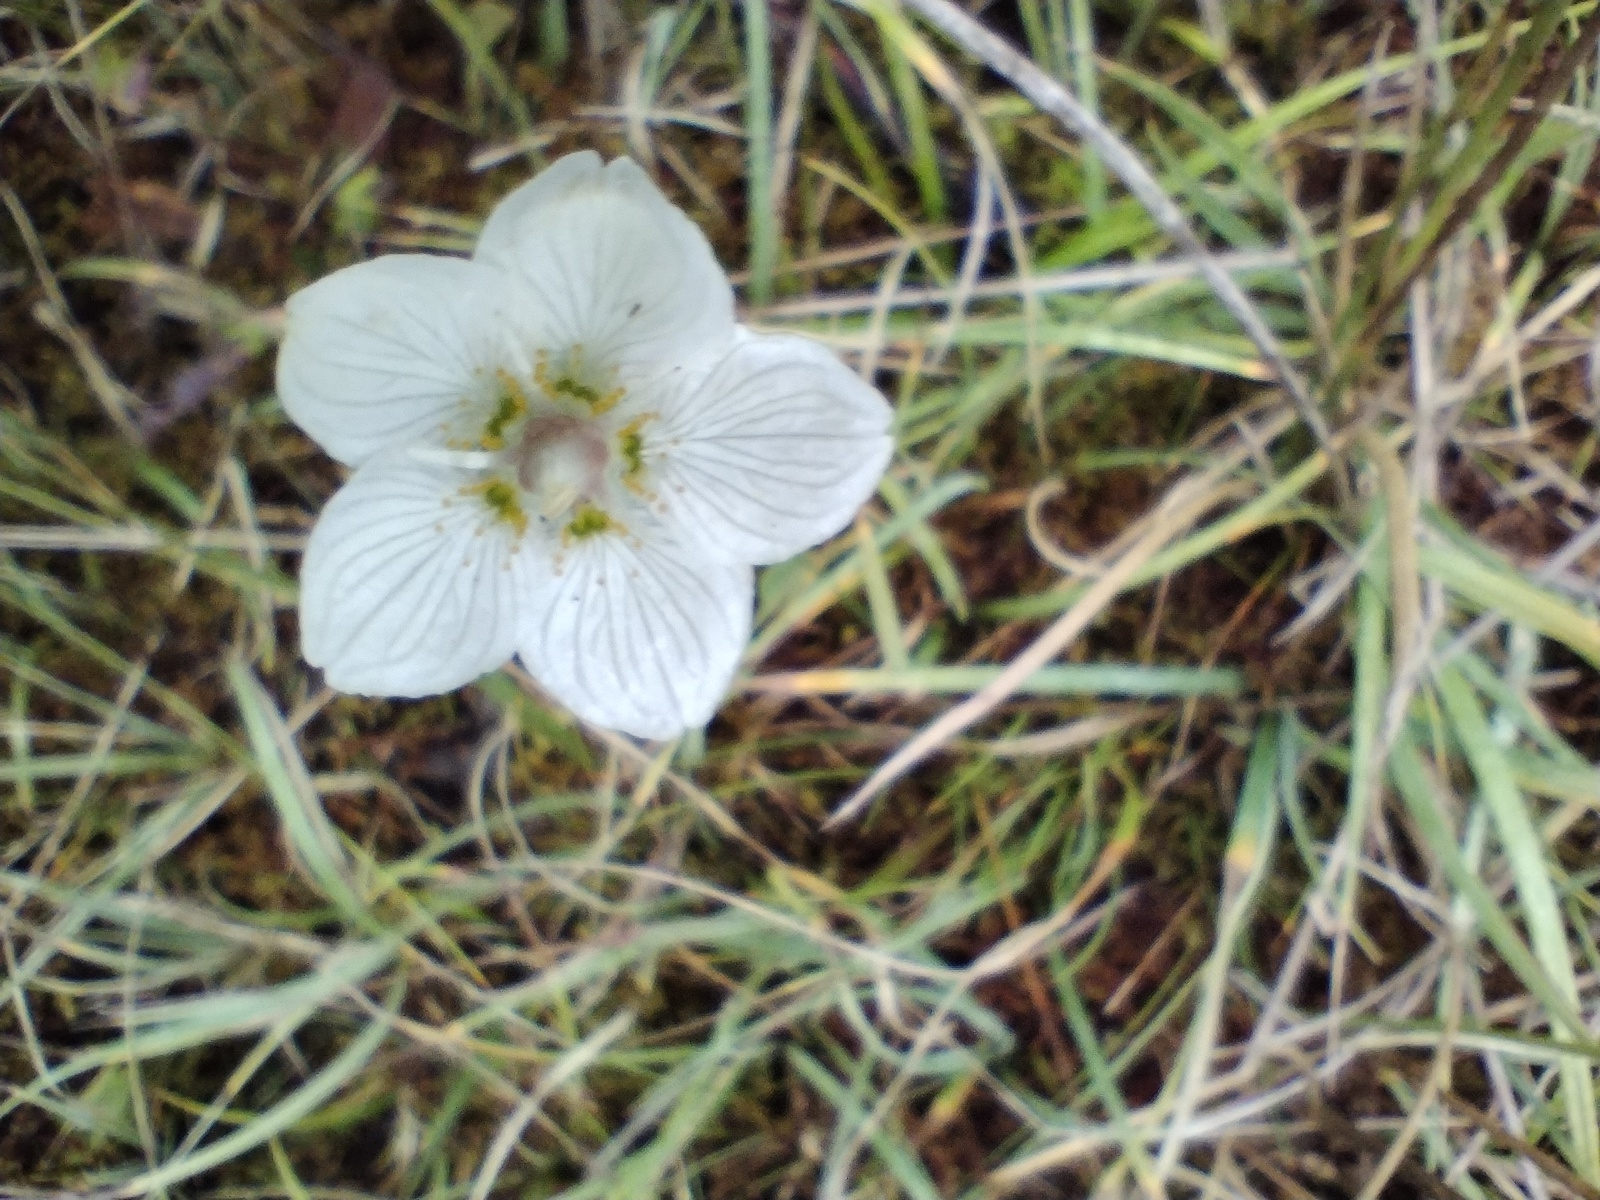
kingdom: Plantae
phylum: Tracheophyta
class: Magnoliopsida
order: Celastrales
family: Parnassiaceae
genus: Parnassia
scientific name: Parnassia palustris
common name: Grass-of-parnassus
